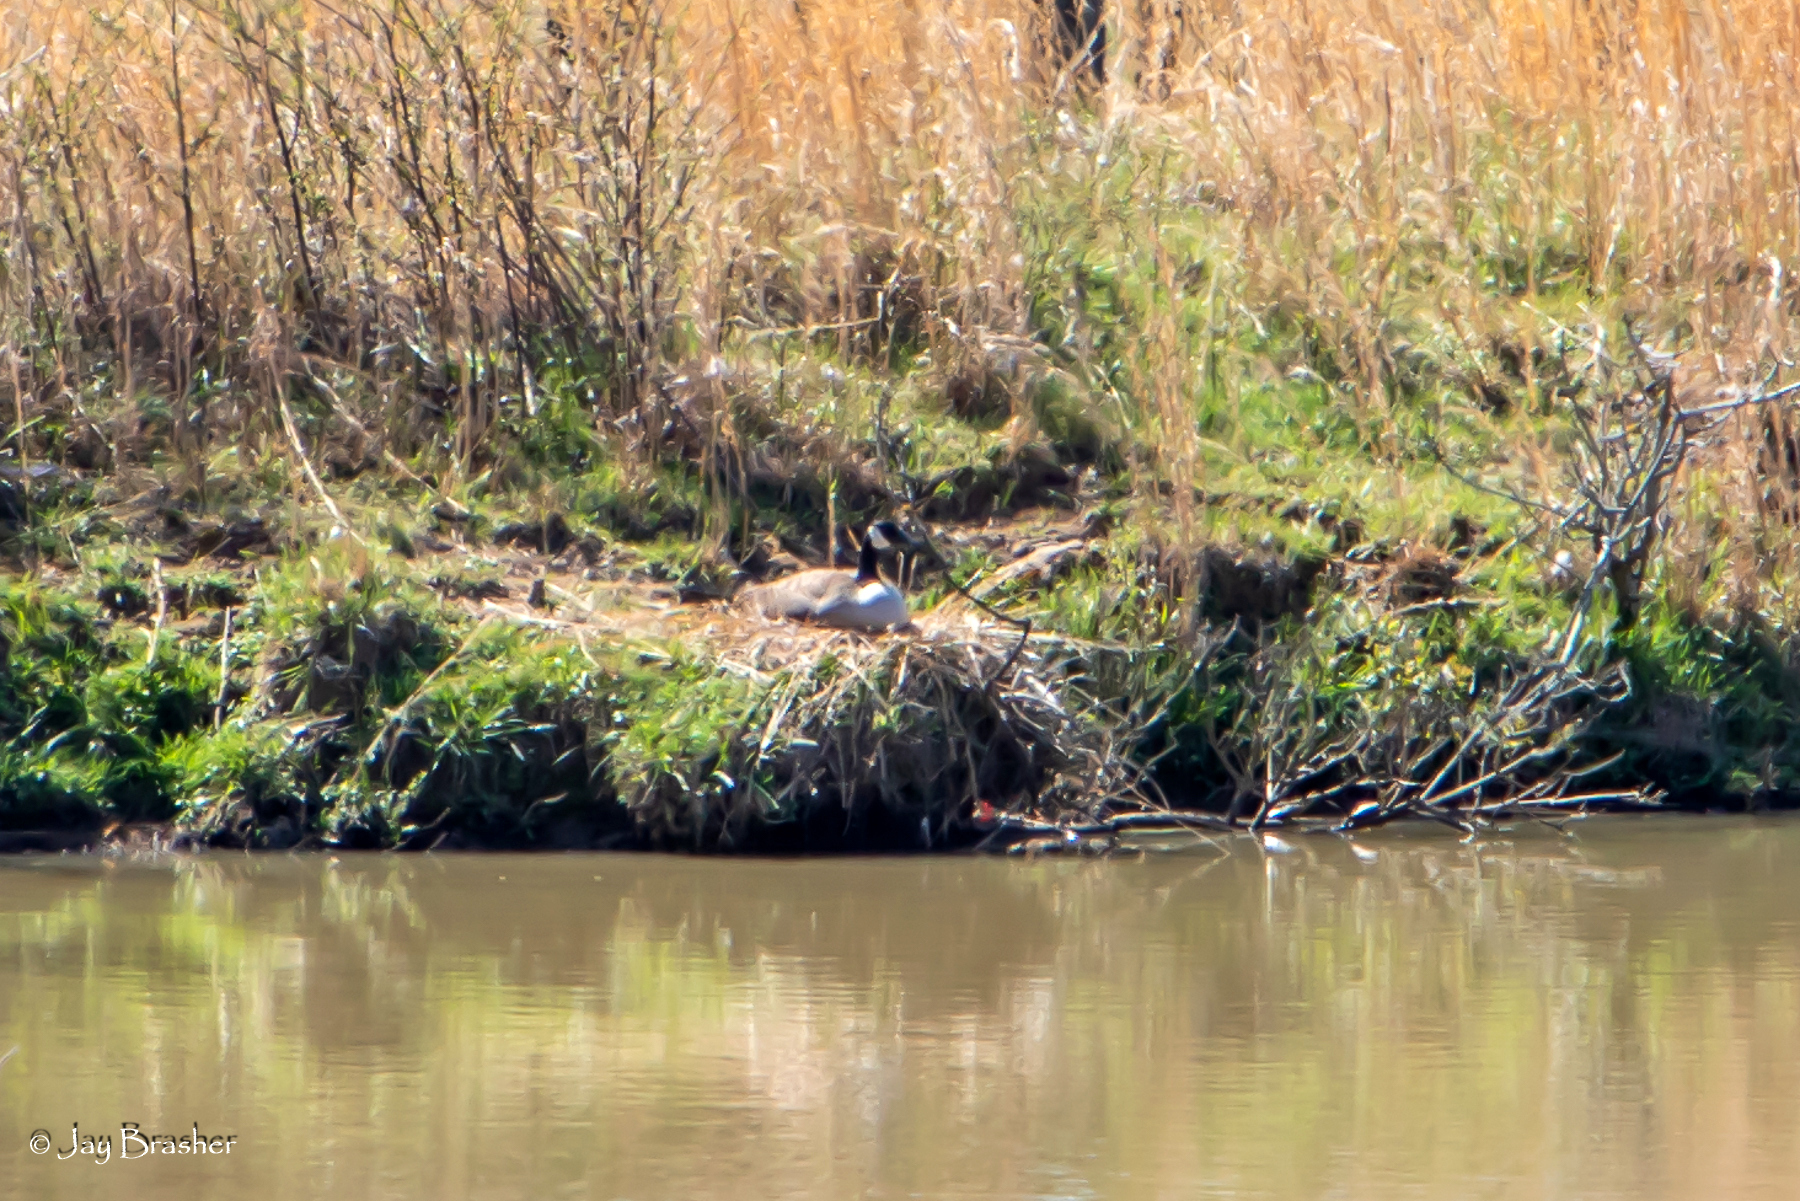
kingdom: Animalia
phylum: Chordata
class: Aves
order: Anseriformes
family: Anatidae
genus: Branta
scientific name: Branta canadensis
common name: Canada goose
